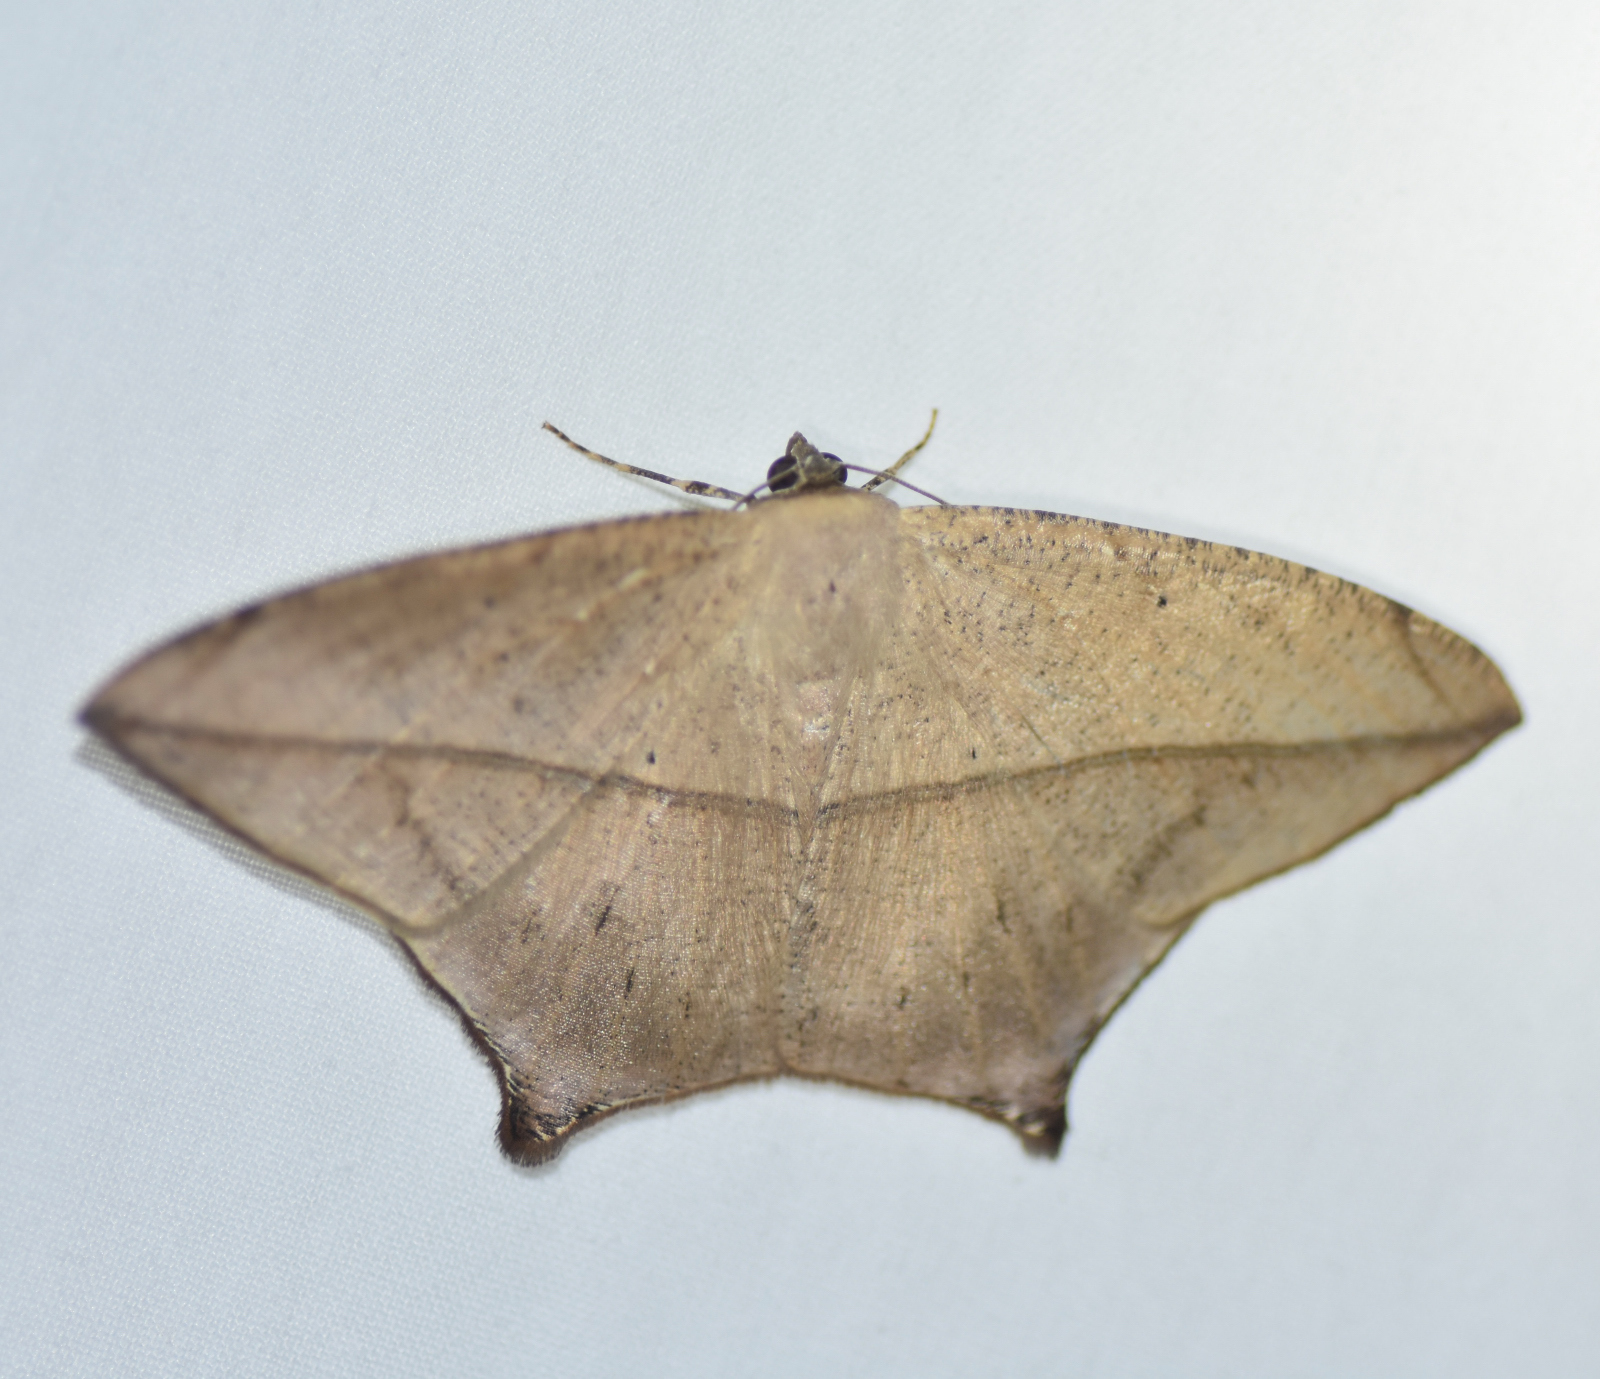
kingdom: Animalia
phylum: Arthropoda
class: Insecta
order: Lepidoptera
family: Geometridae
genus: Prochoerodes
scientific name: Prochoerodes tetragonata
